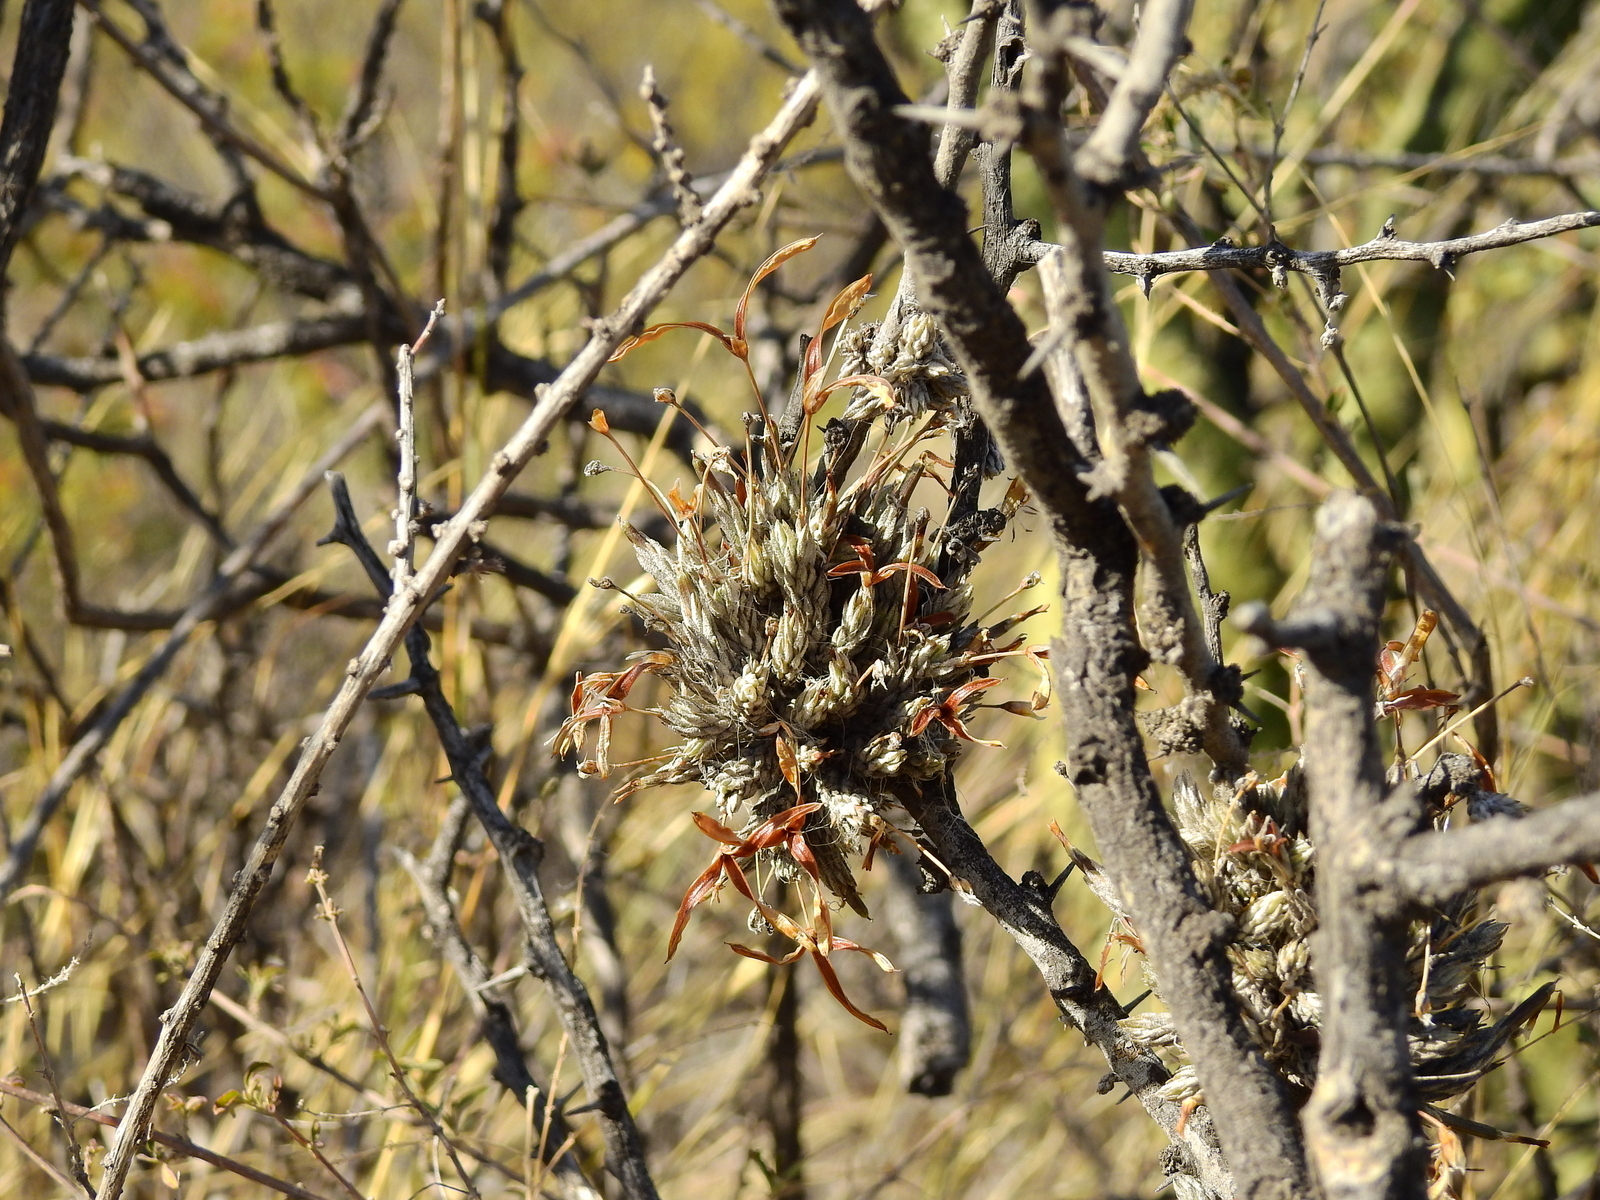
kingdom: Plantae
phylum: Tracheophyta
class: Liliopsida
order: Poales
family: Bromeliaceae
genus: Tillandsia
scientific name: Tillandsia pedicellata
